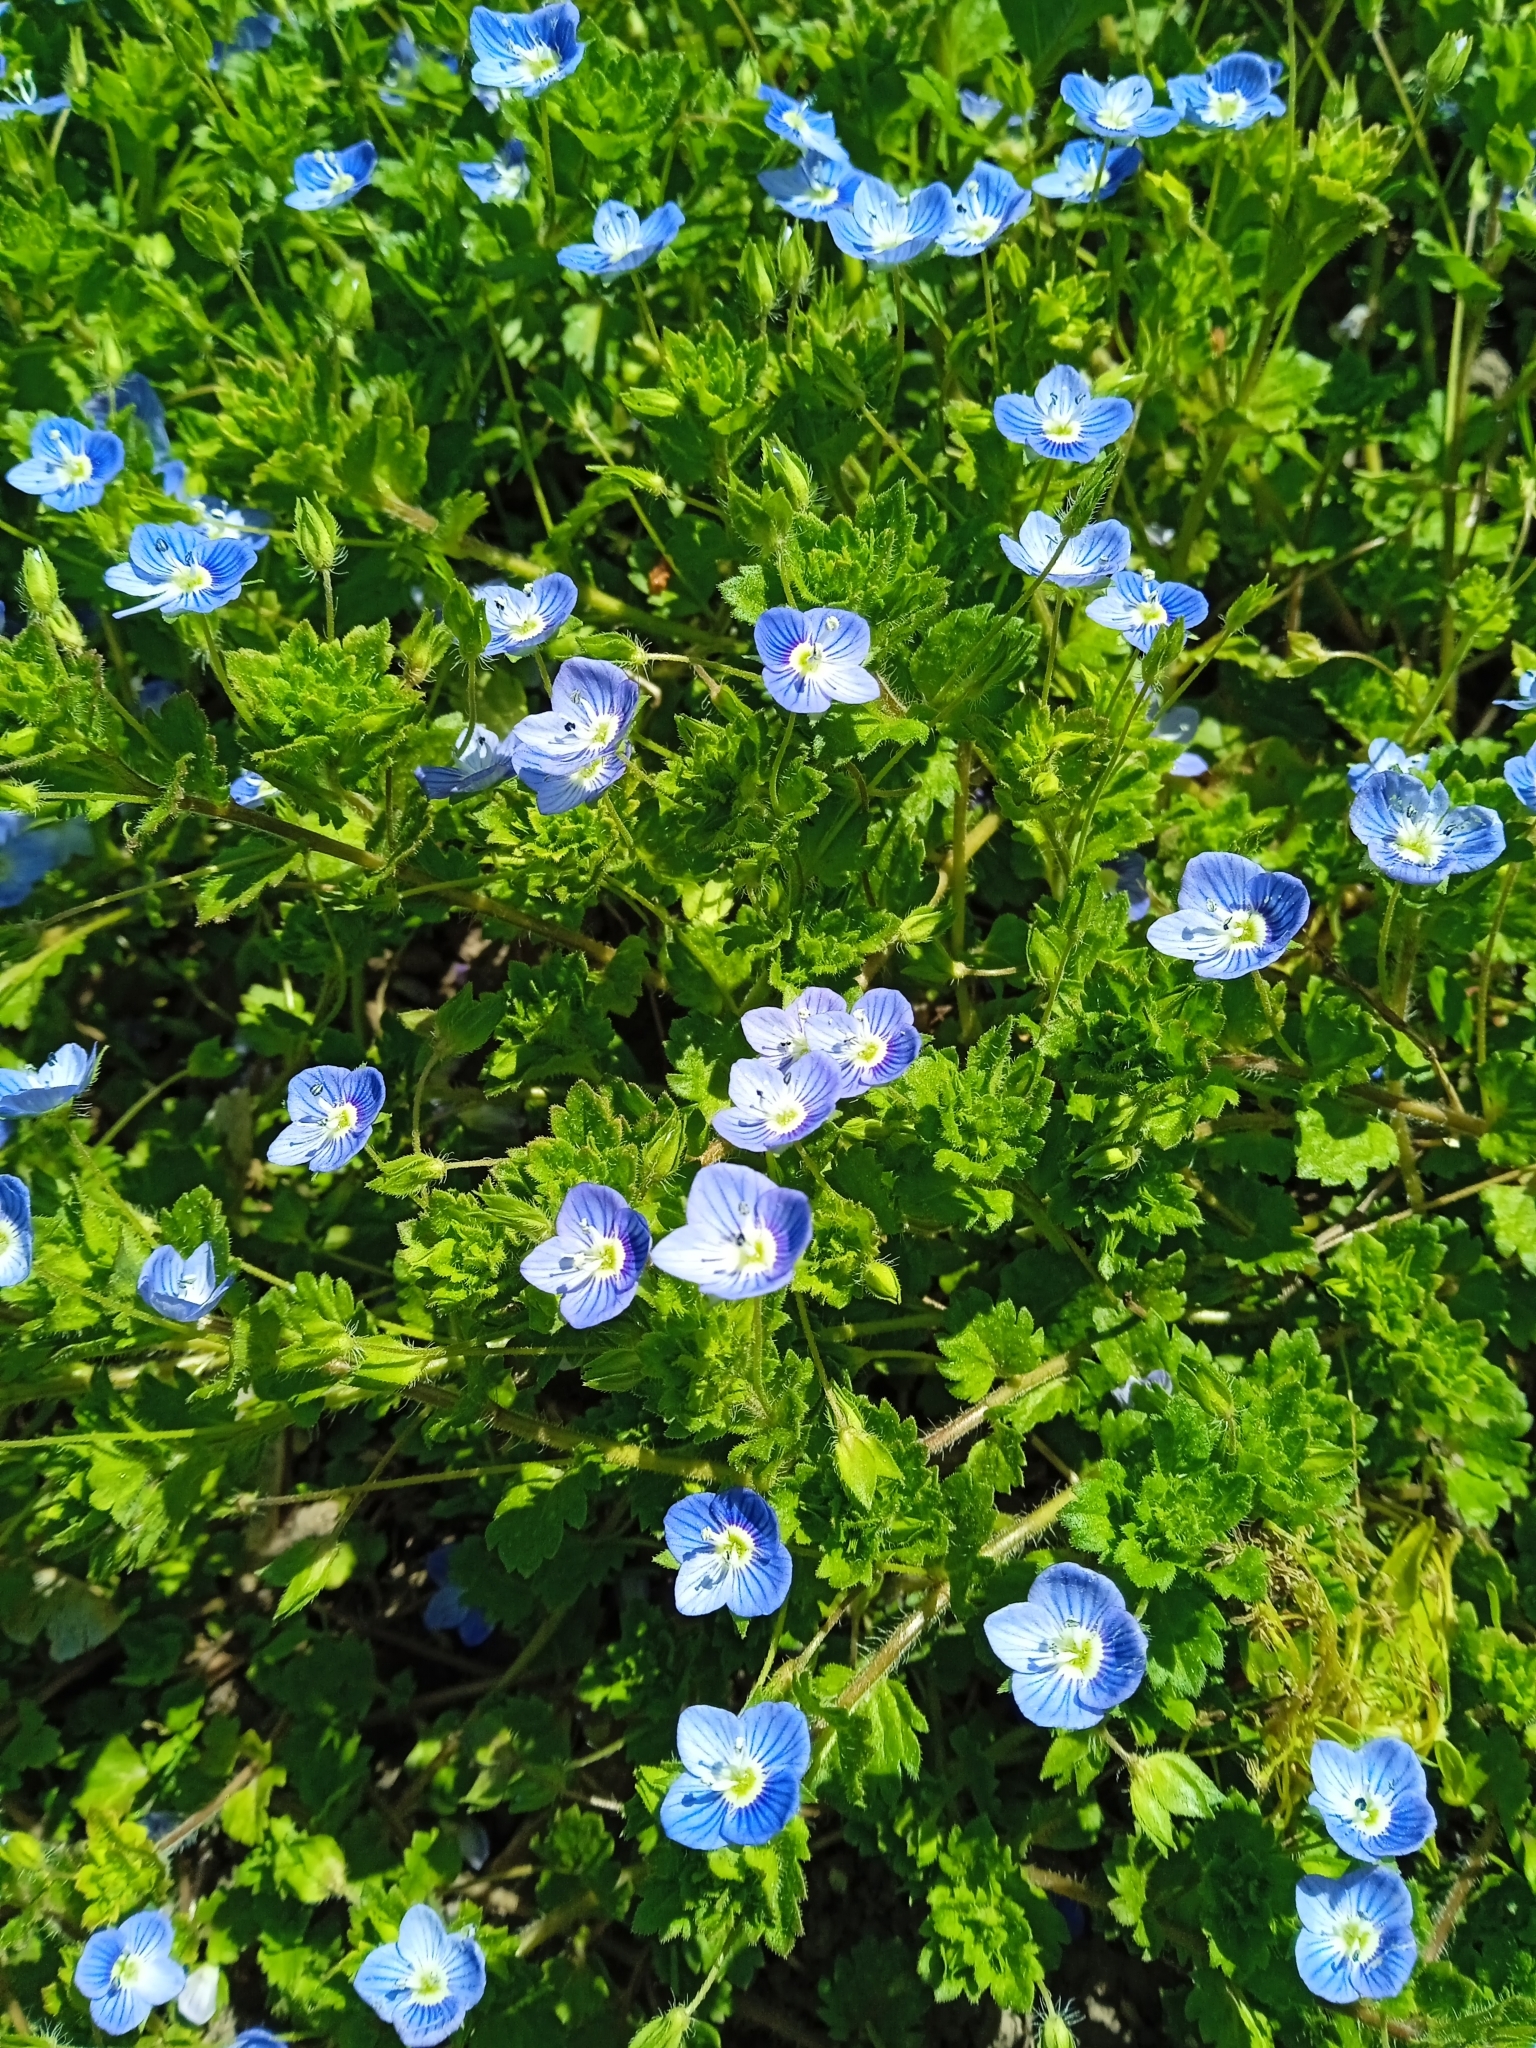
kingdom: Plantae
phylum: Tracheophyta
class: Magnoliopsida
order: Lamiales
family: Plantaginaceae
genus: Veronica
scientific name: Veronica persica
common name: Common field-speedwell
